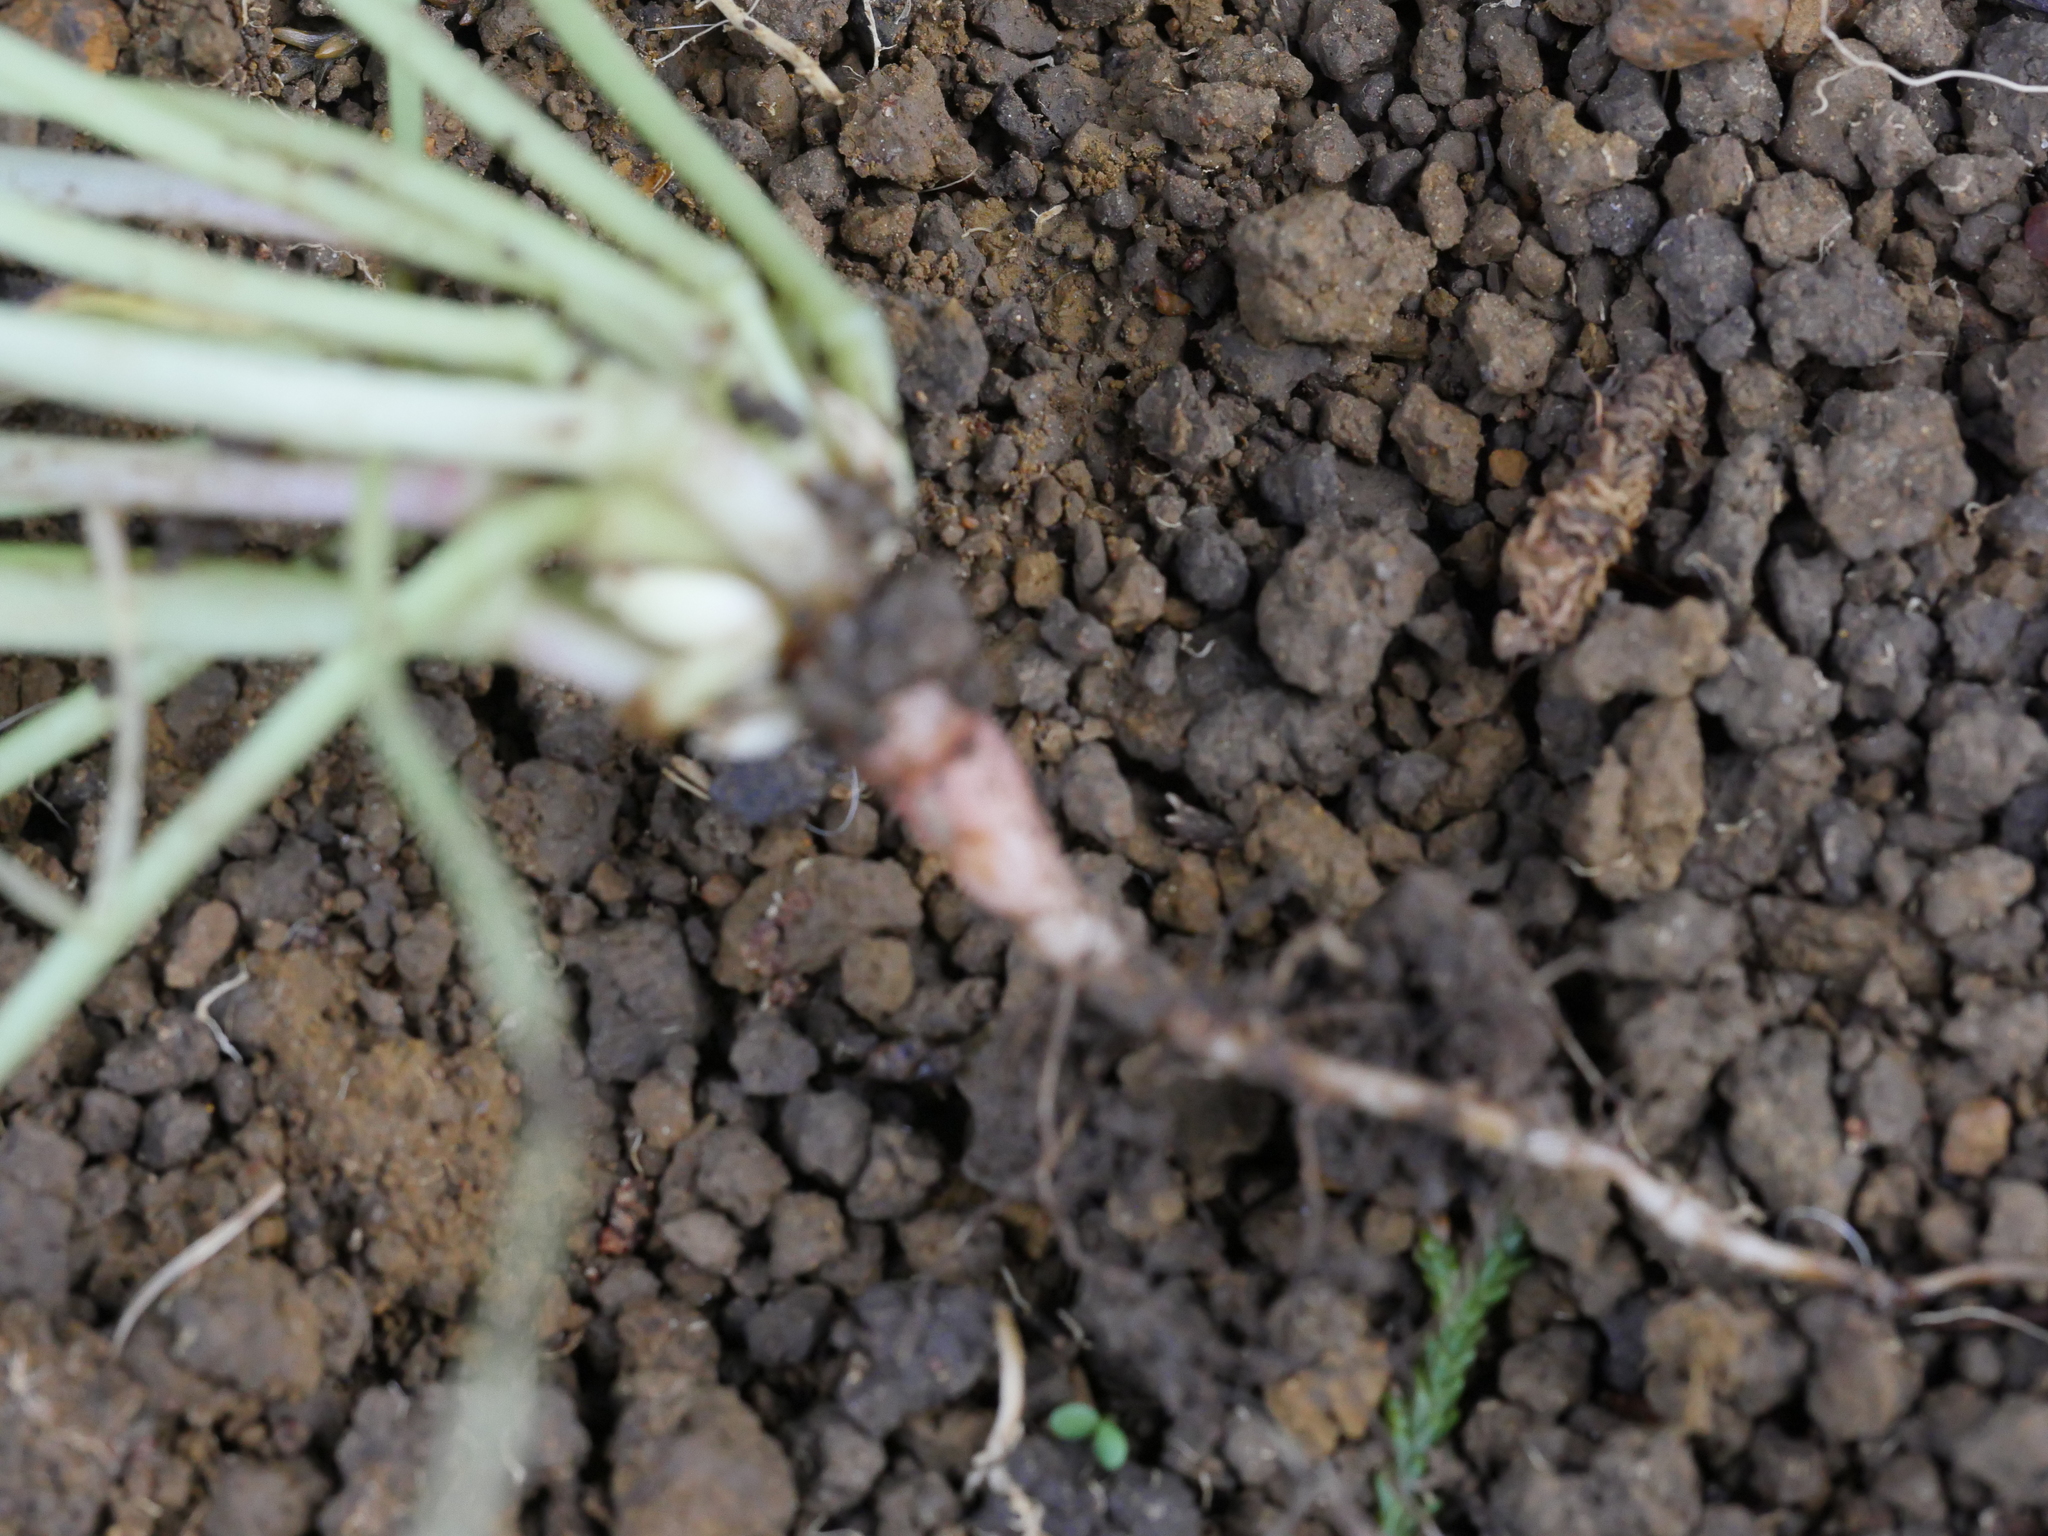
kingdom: Plantae
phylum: Tracheophyta
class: Magnoliopsida
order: Oxalidales
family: Oxalidaceae
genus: Oxalis
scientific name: Oxalis pes-caprae
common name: Bermuda-buttercup
